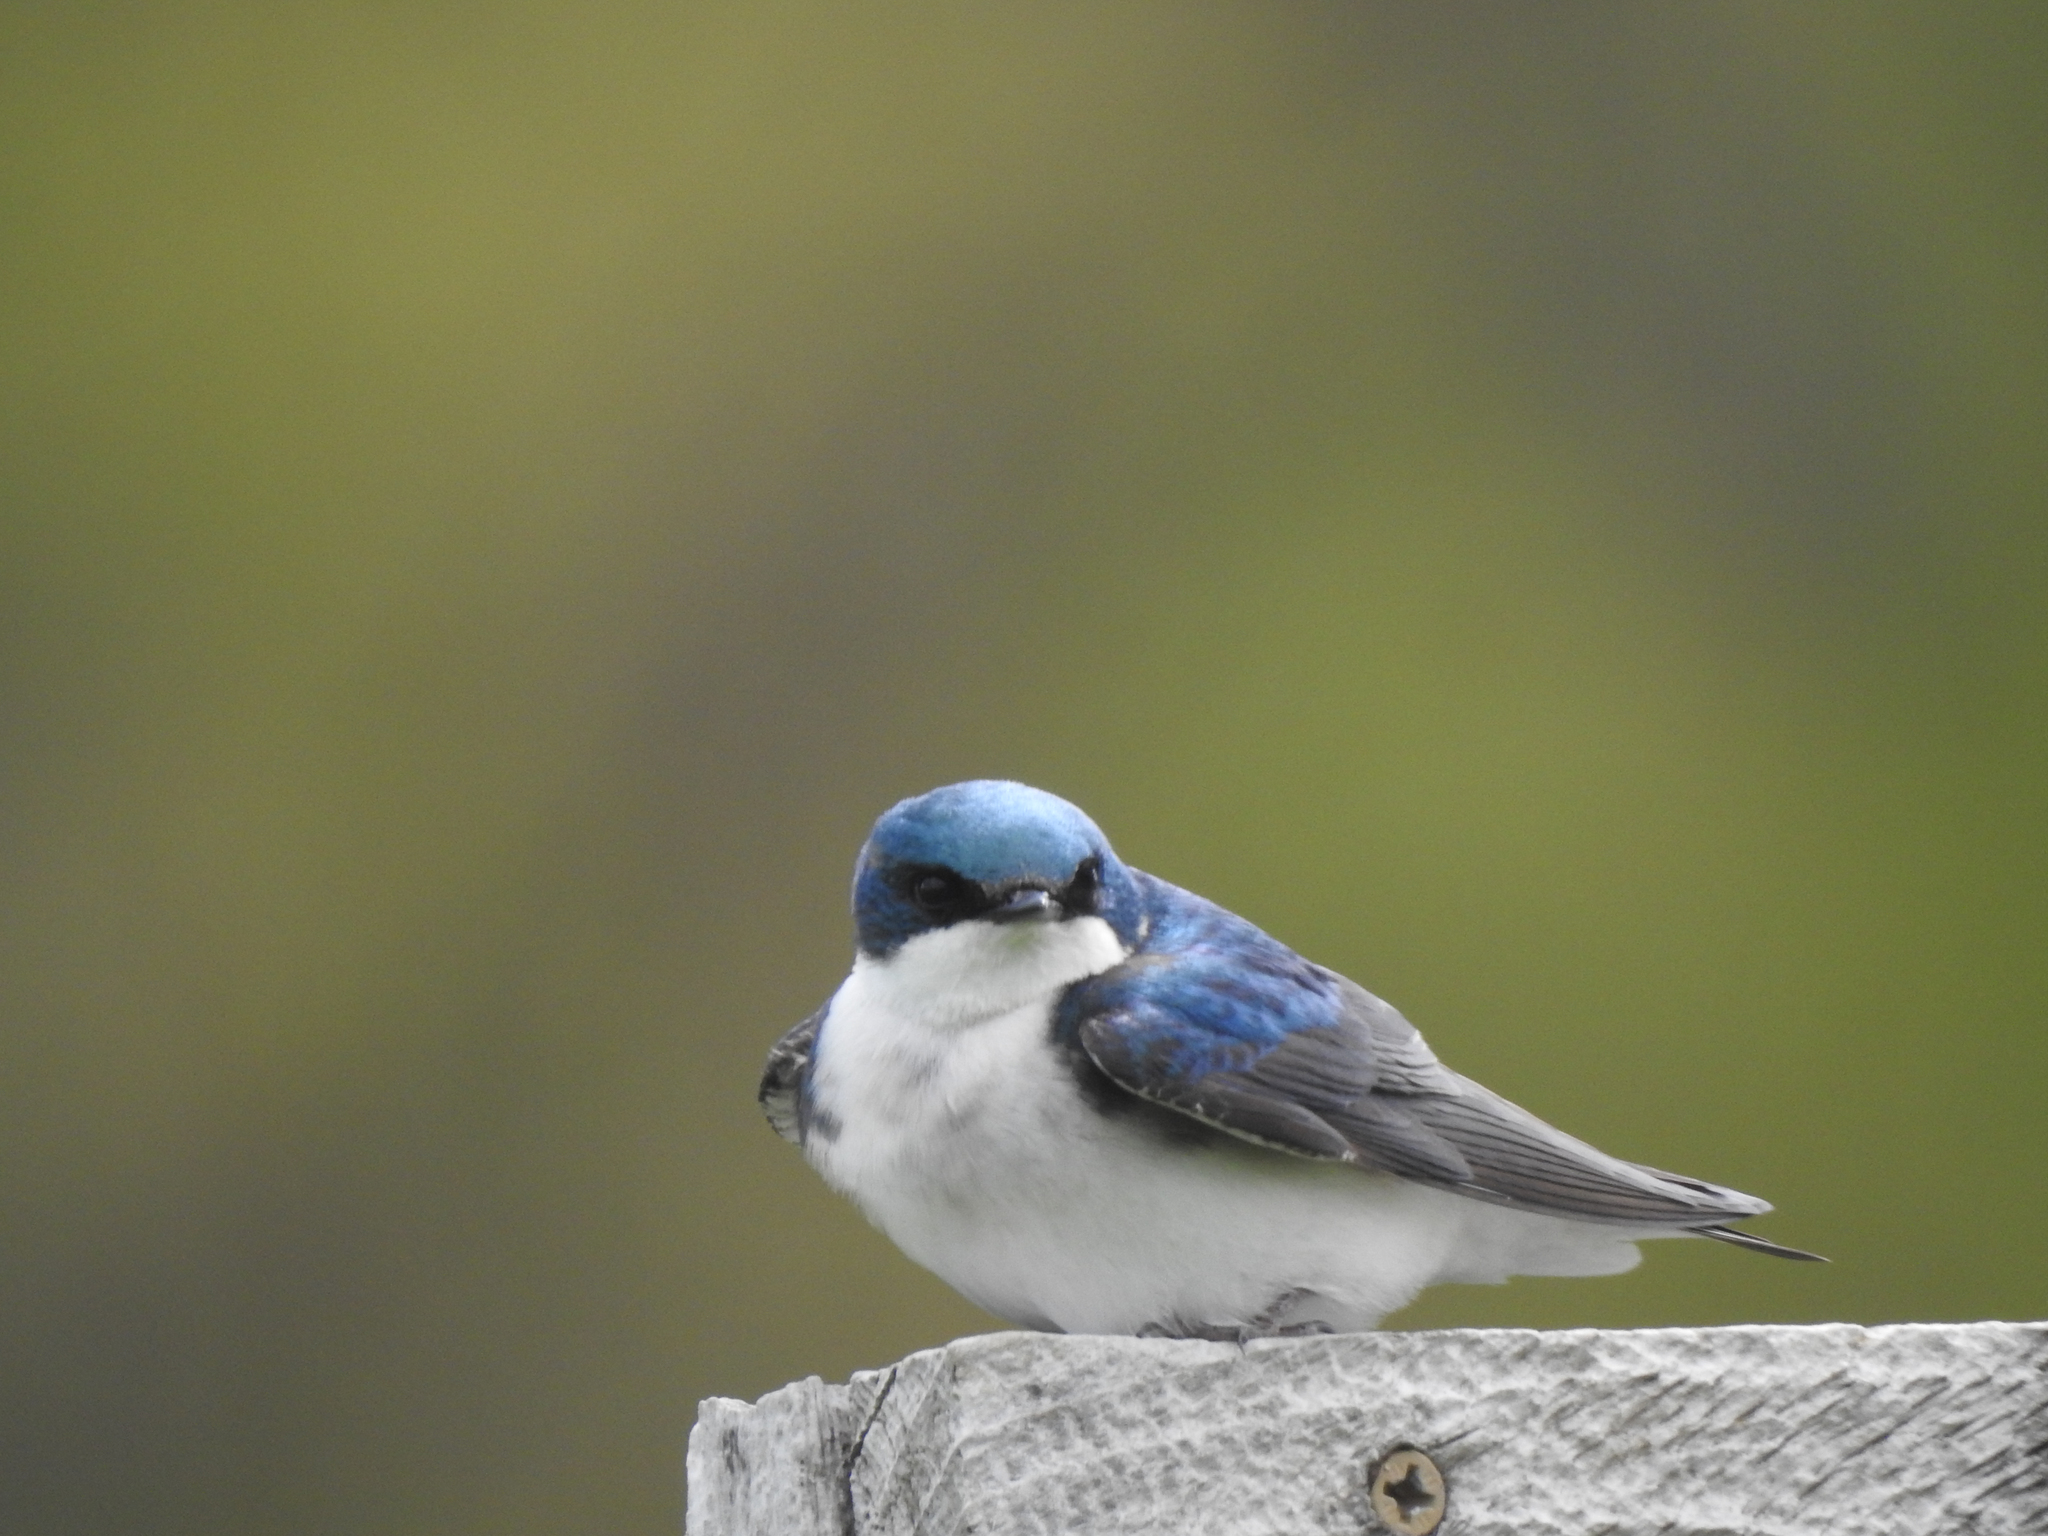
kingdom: Animalia
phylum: Chordata
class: Aves
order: Passeriformes
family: Hirundinidae
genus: Tachycineta
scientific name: Tachycineta bicolor
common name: Tree swallow
